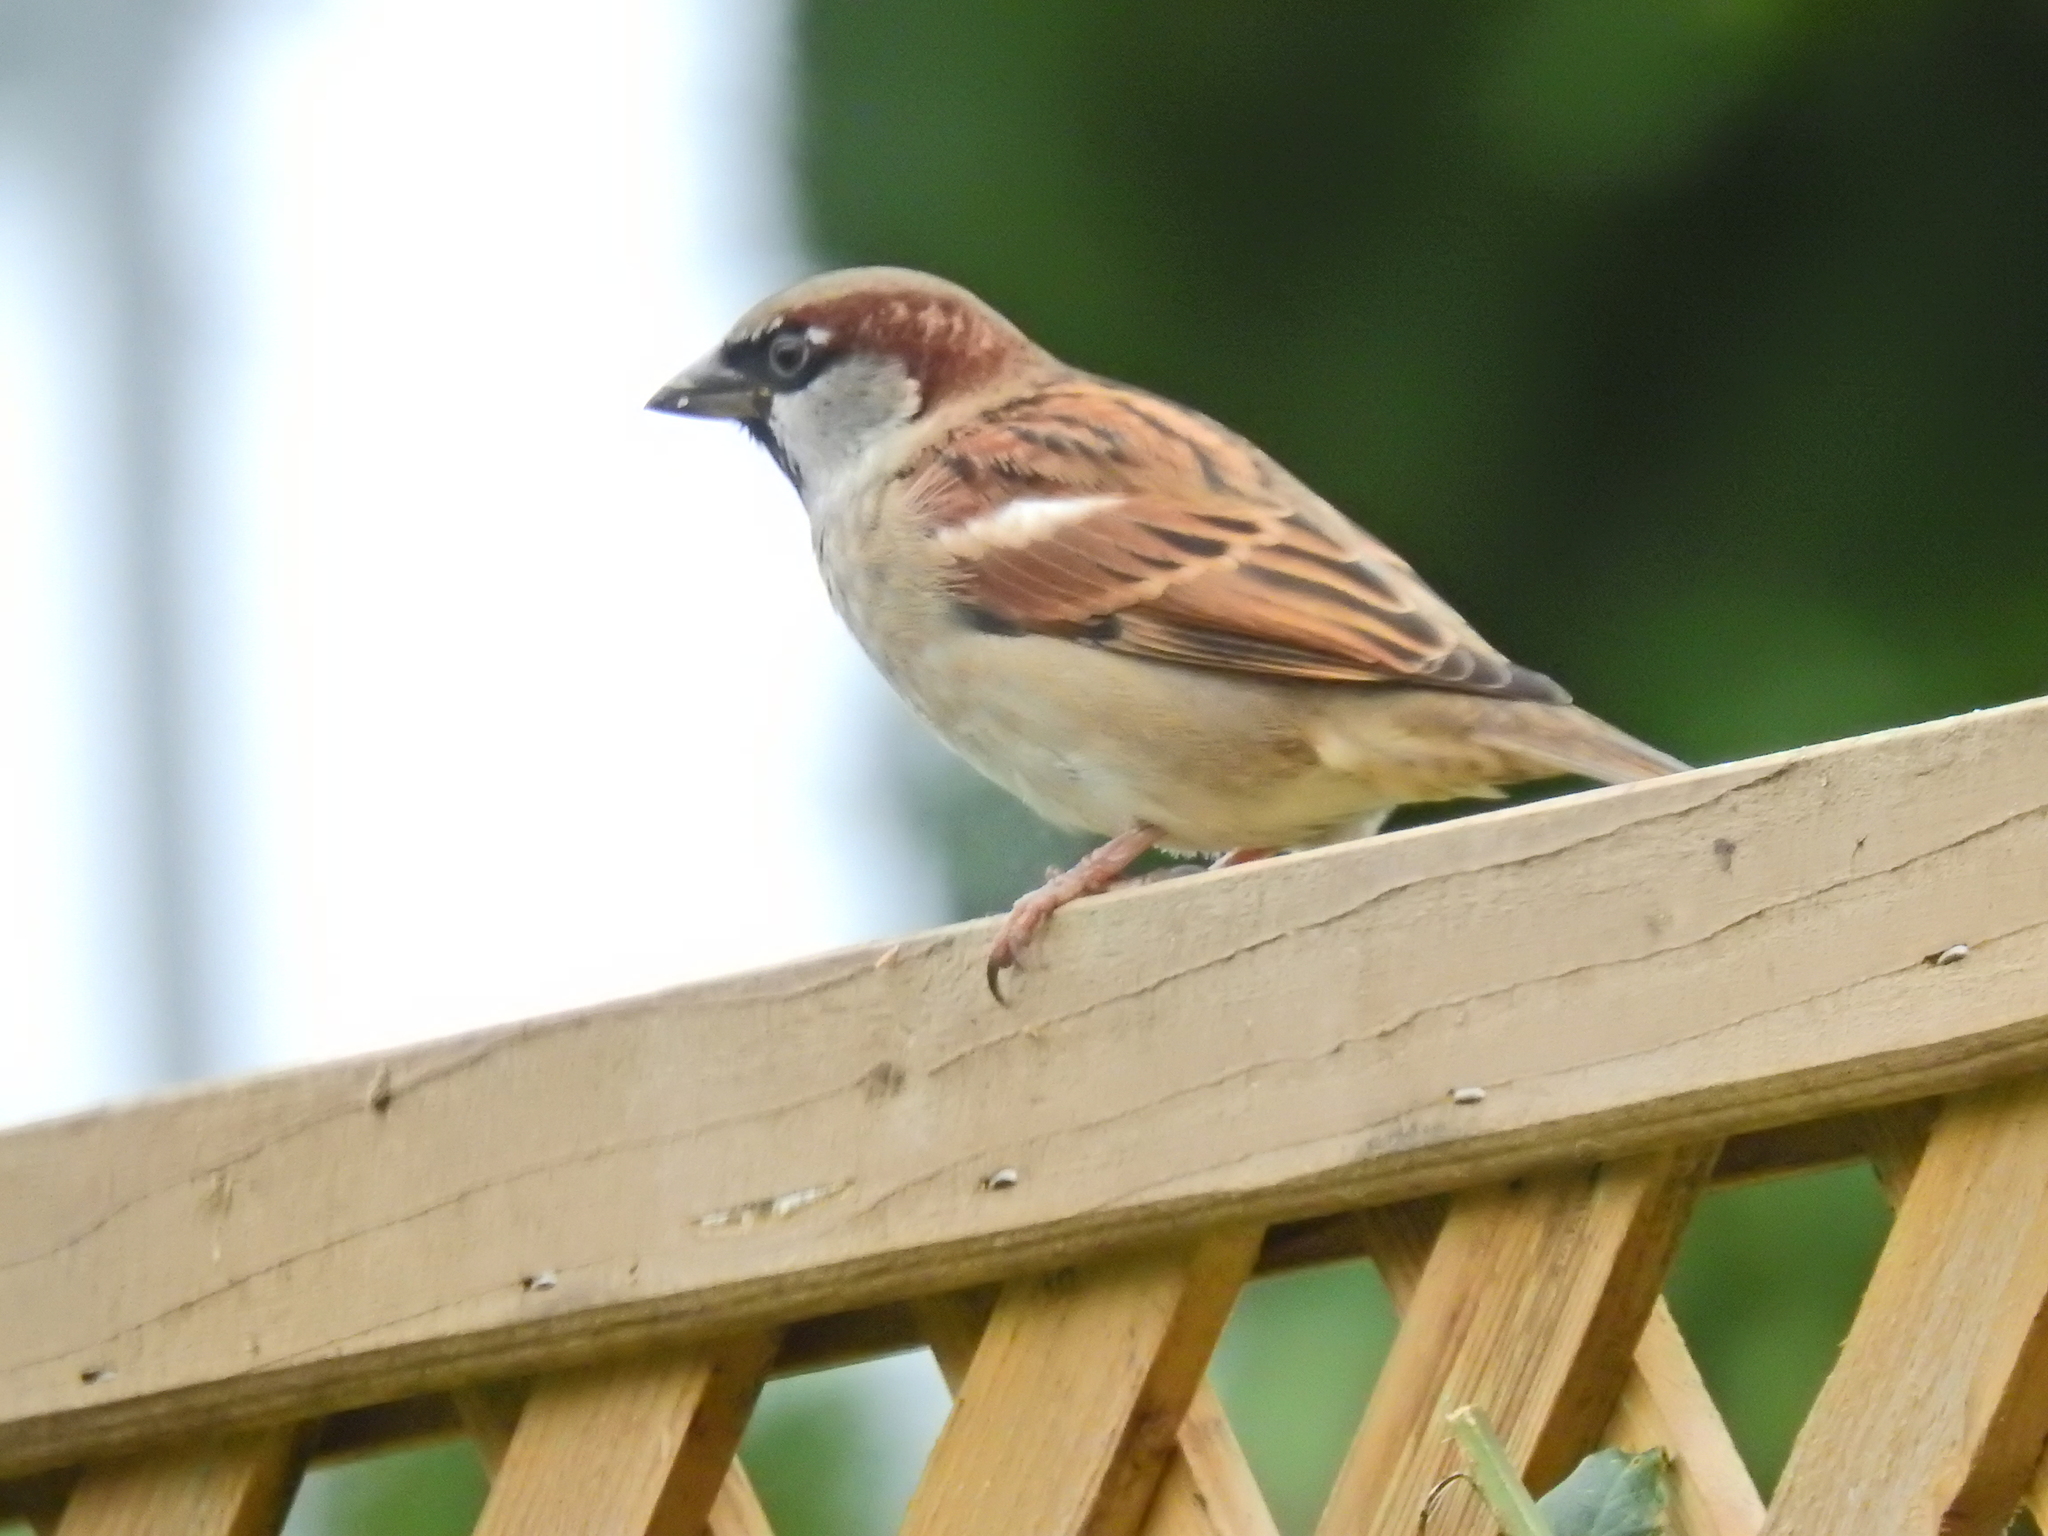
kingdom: Animalia
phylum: Chordata
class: Aves
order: Passeriformes
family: Passeridae
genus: Passer
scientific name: Passer domesticus
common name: House sparrow
